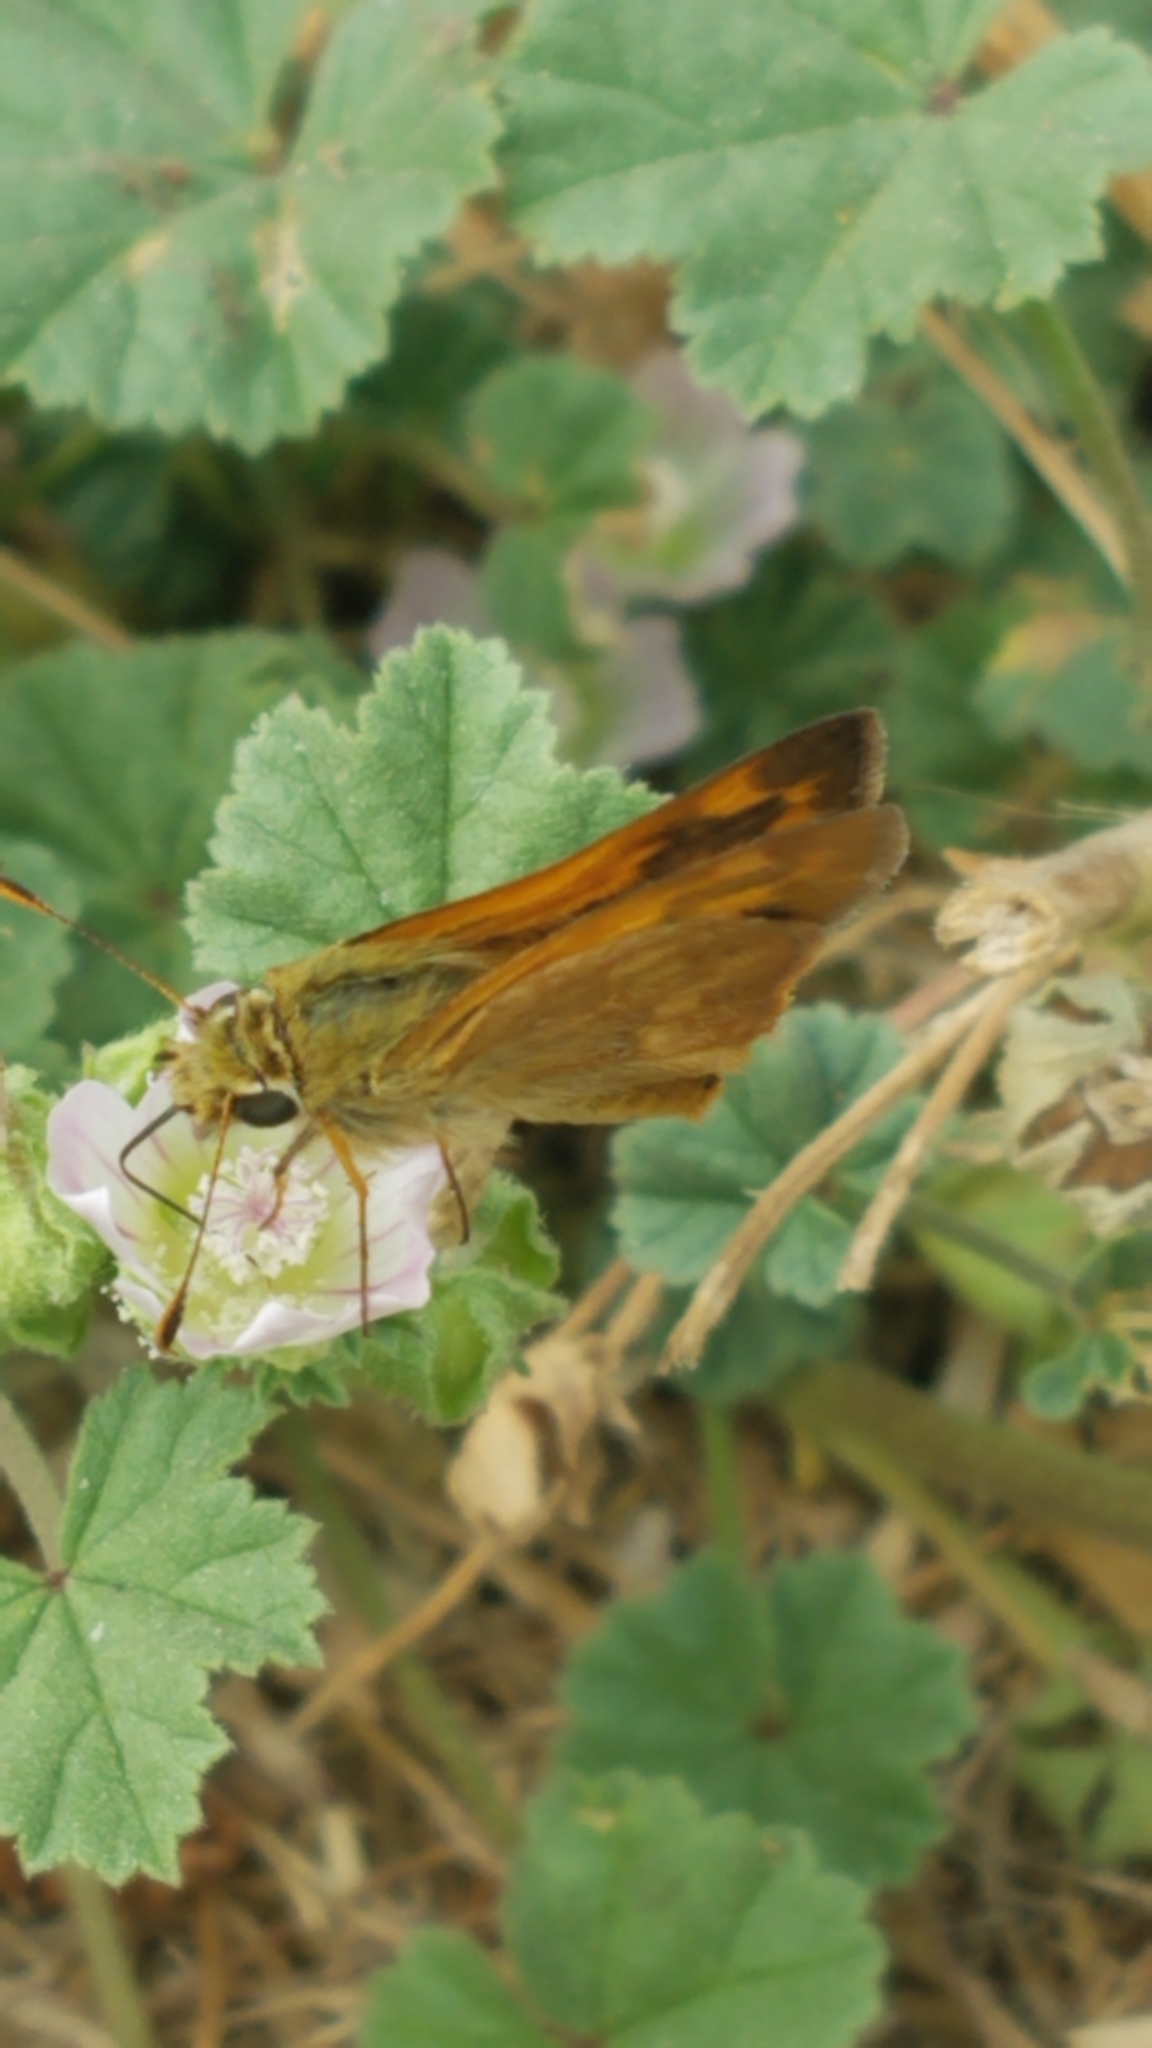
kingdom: Animalia
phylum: Arthropoda
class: Insecta
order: Lepidoptera
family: Hesperiidae
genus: Ochlodes
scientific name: Ochlodes sylvanoides
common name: Woodland skipper
